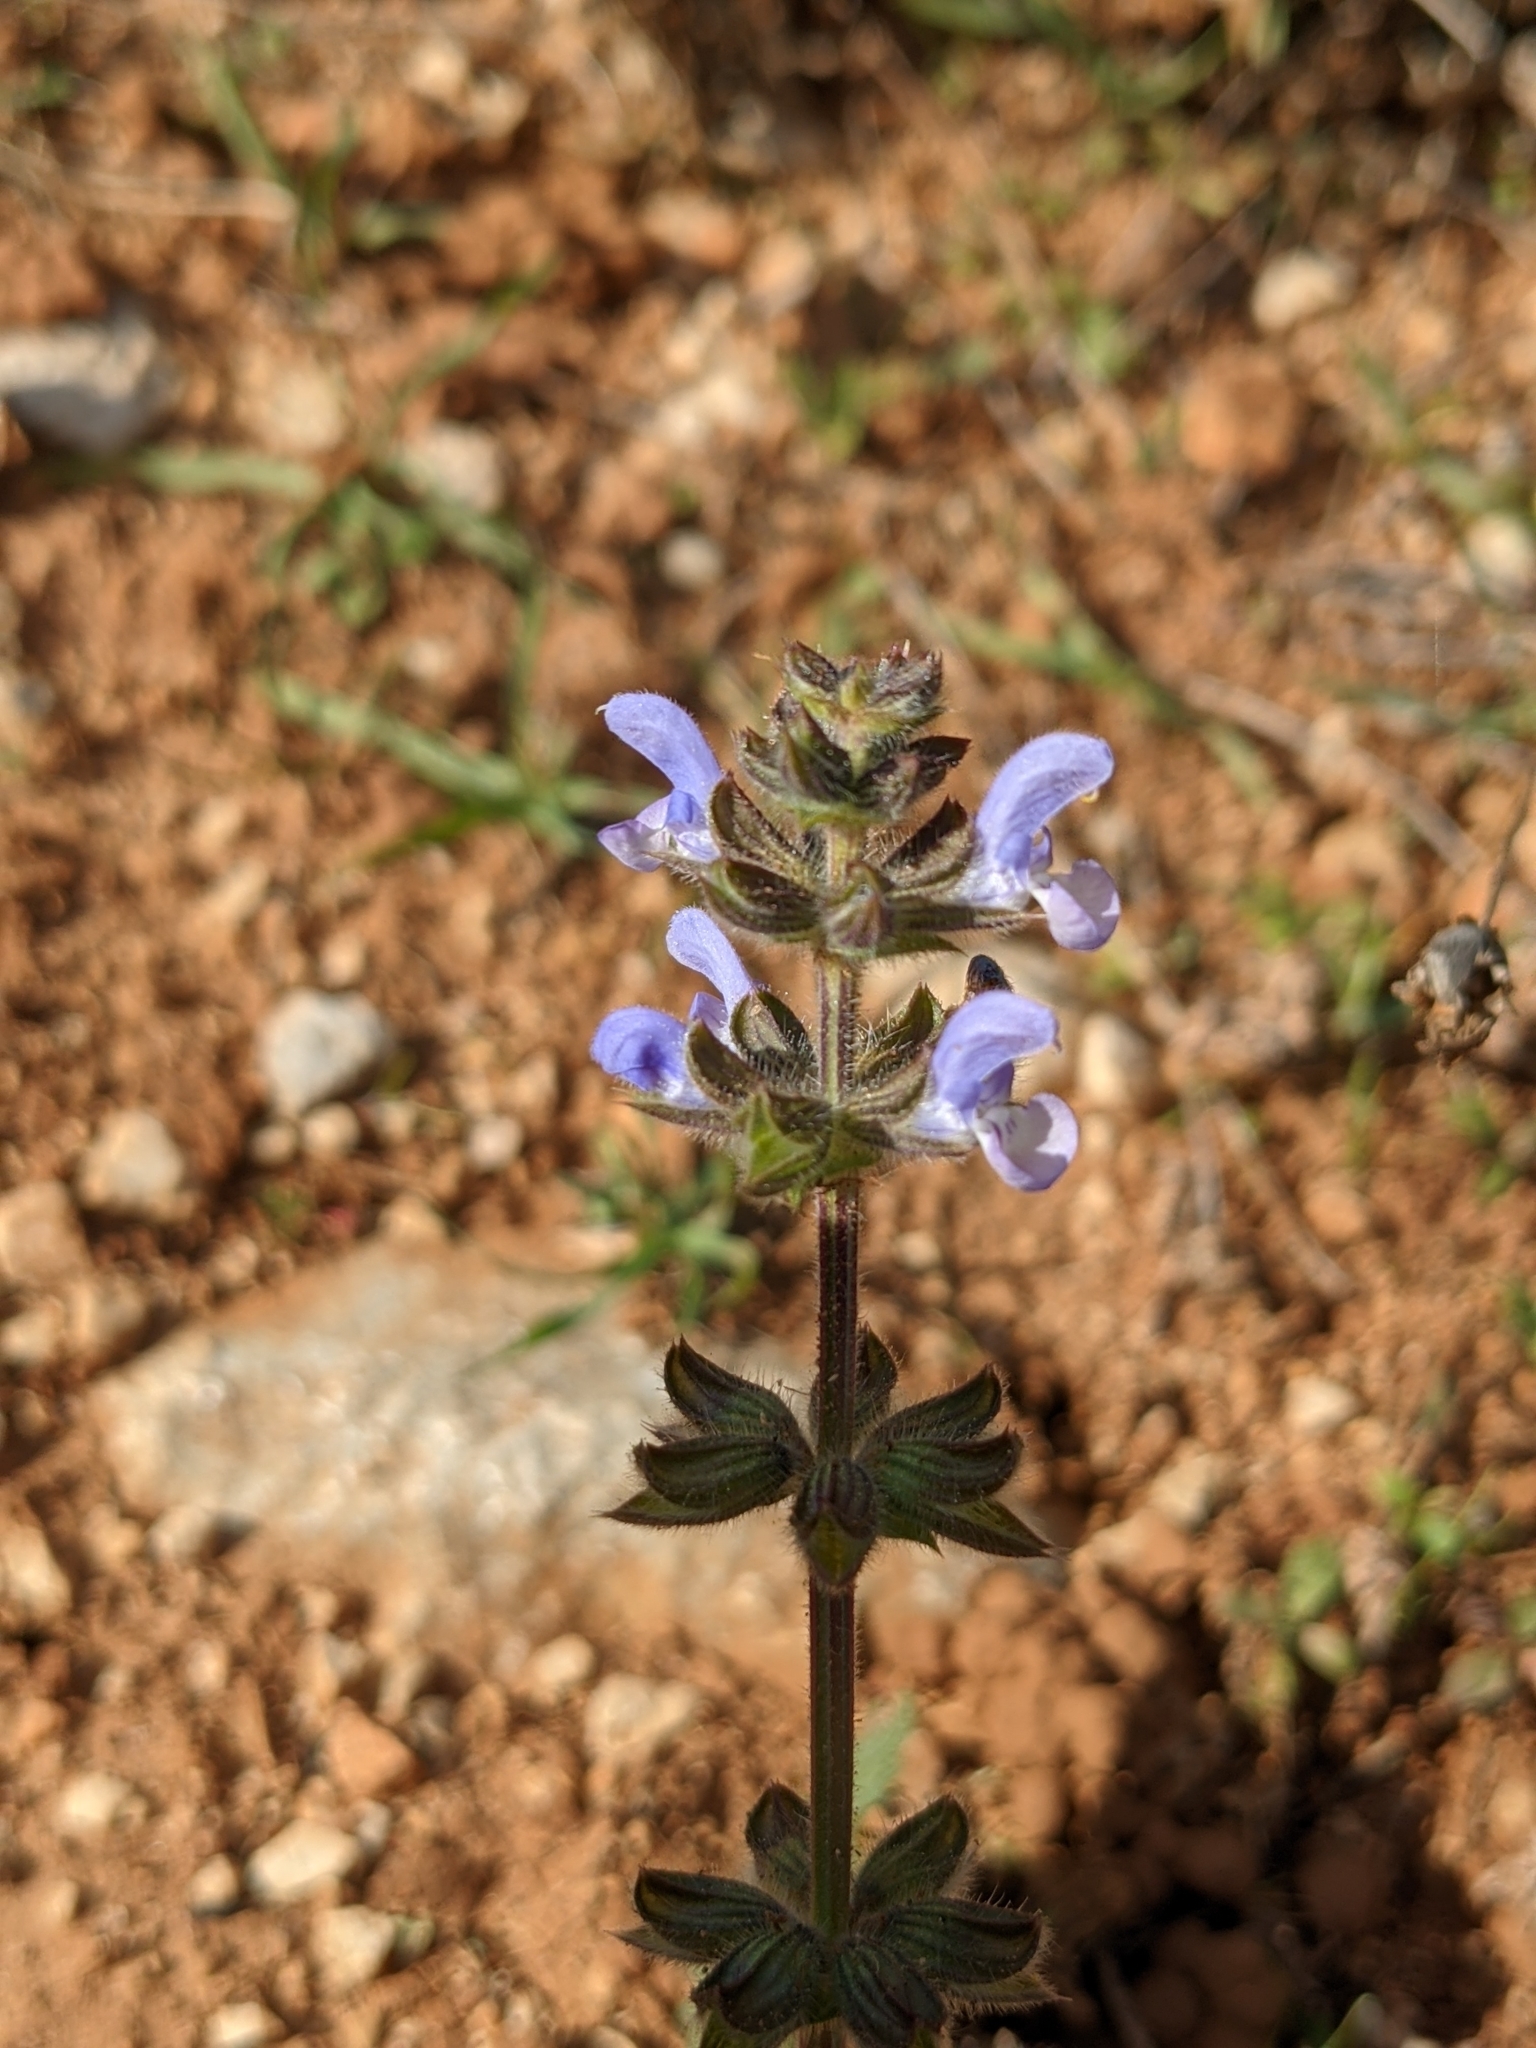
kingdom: Plantae
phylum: Tracheophyta
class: Magnoliopsida
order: Lamiales
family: Lamiaceae
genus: Salvia
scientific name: Salvia verbenaca
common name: Wild clary
